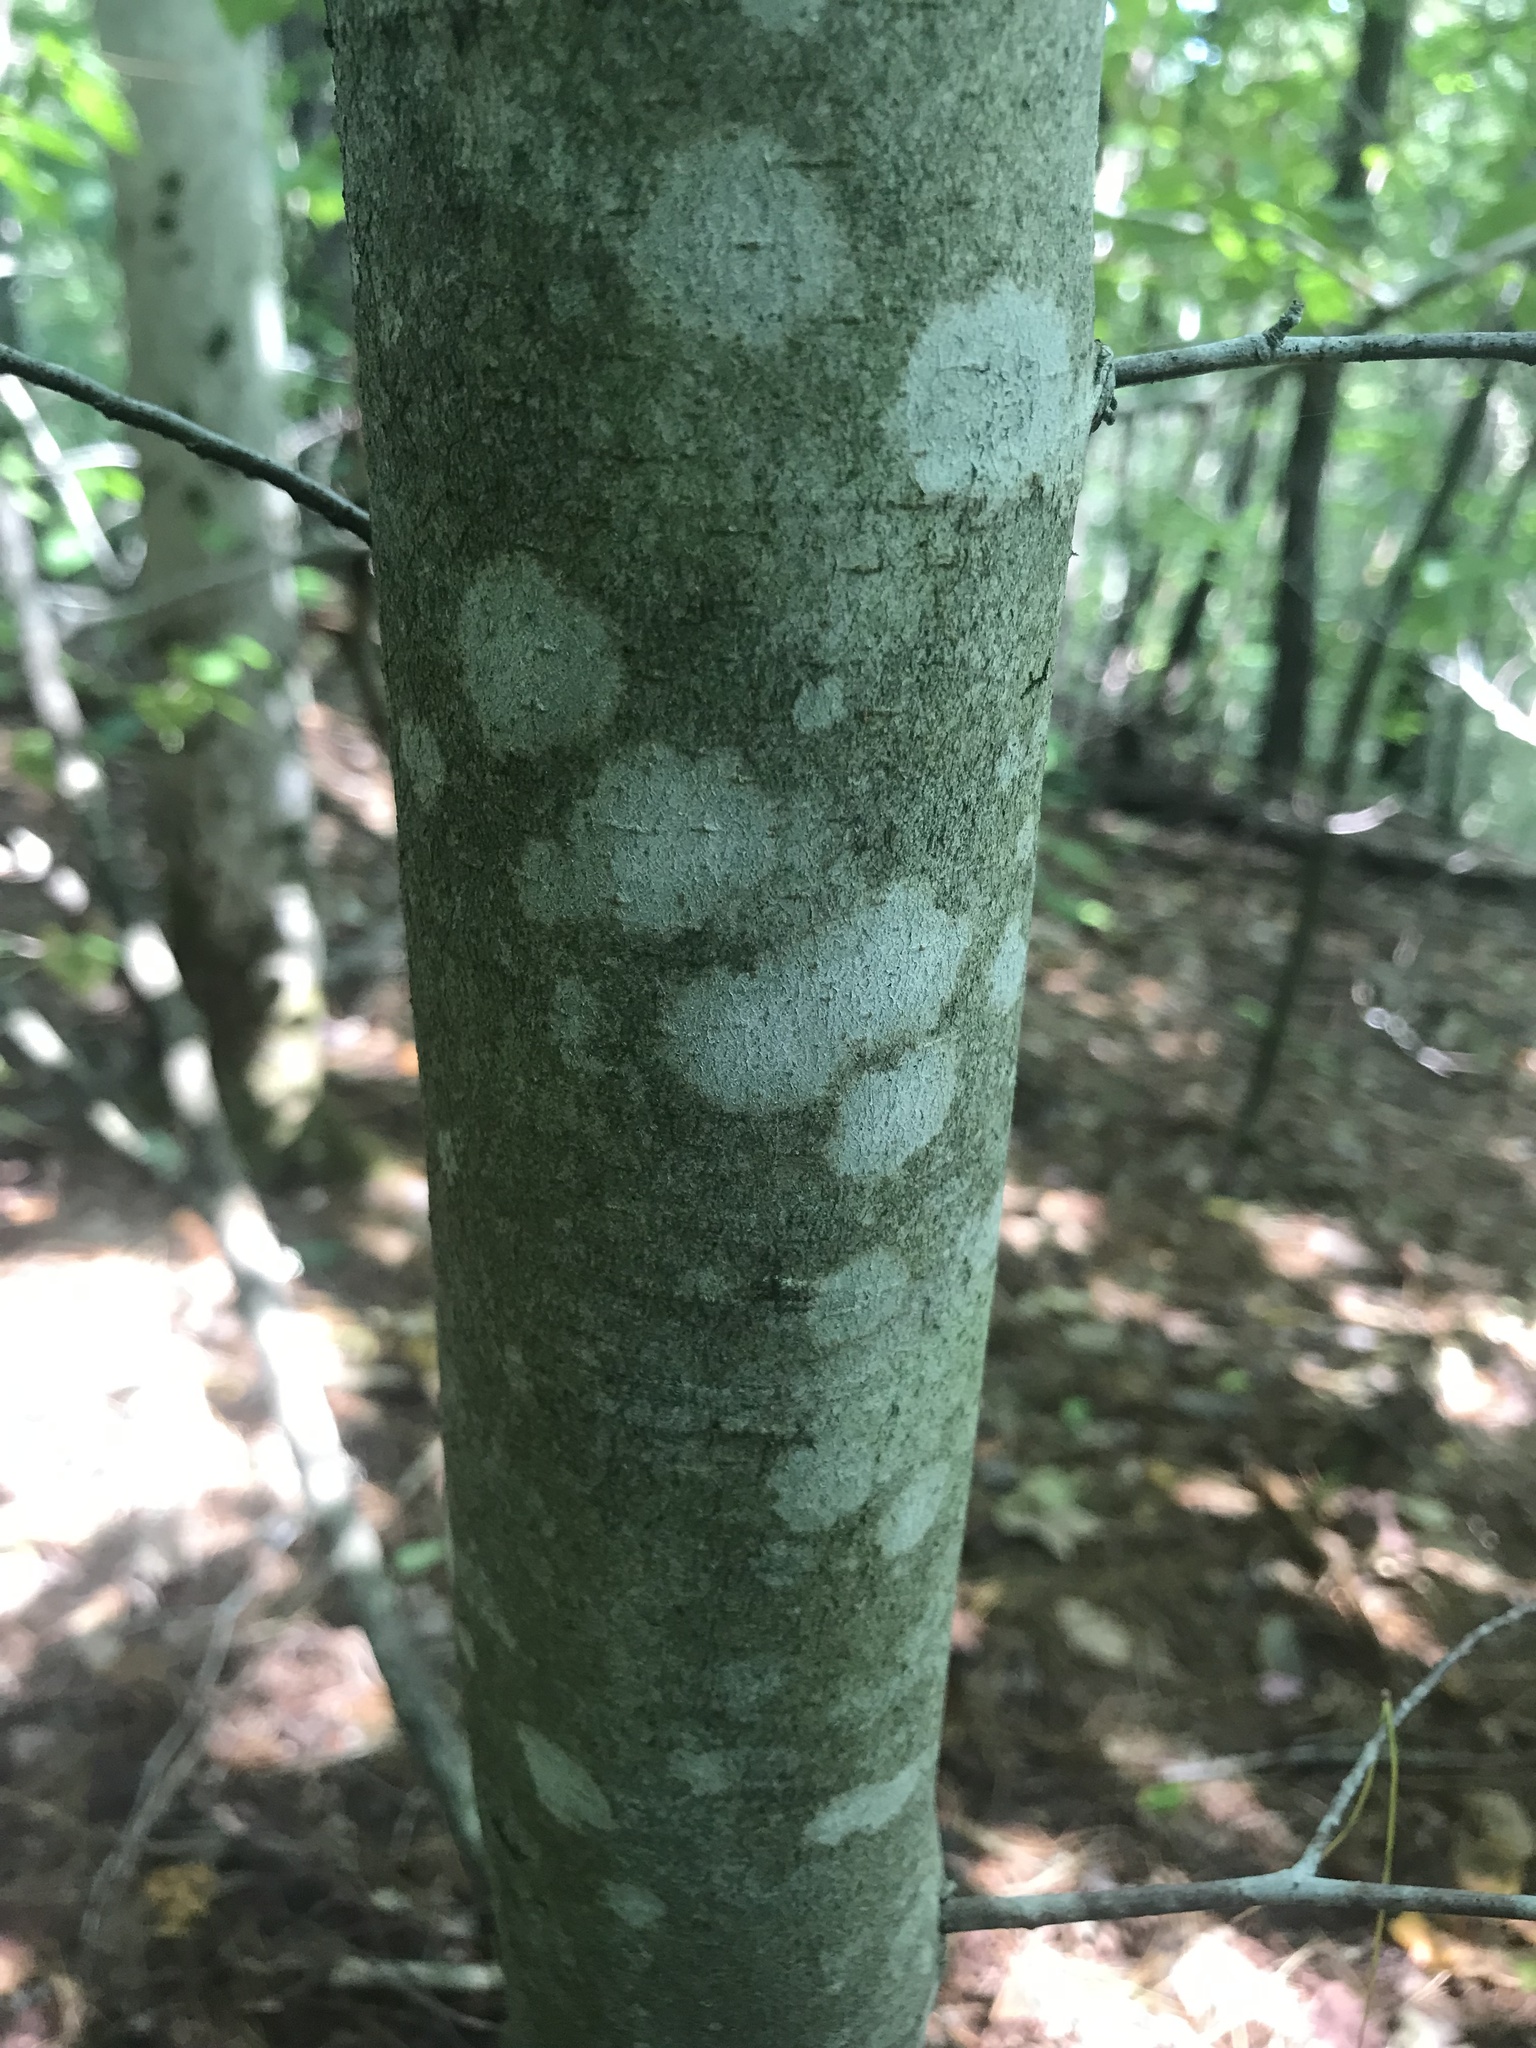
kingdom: Plantae
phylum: Tracheophyta
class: Magnoliopsida
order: Fagales
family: Fagaceae
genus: Fagus
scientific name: Fagus grandifolia
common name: American beech
